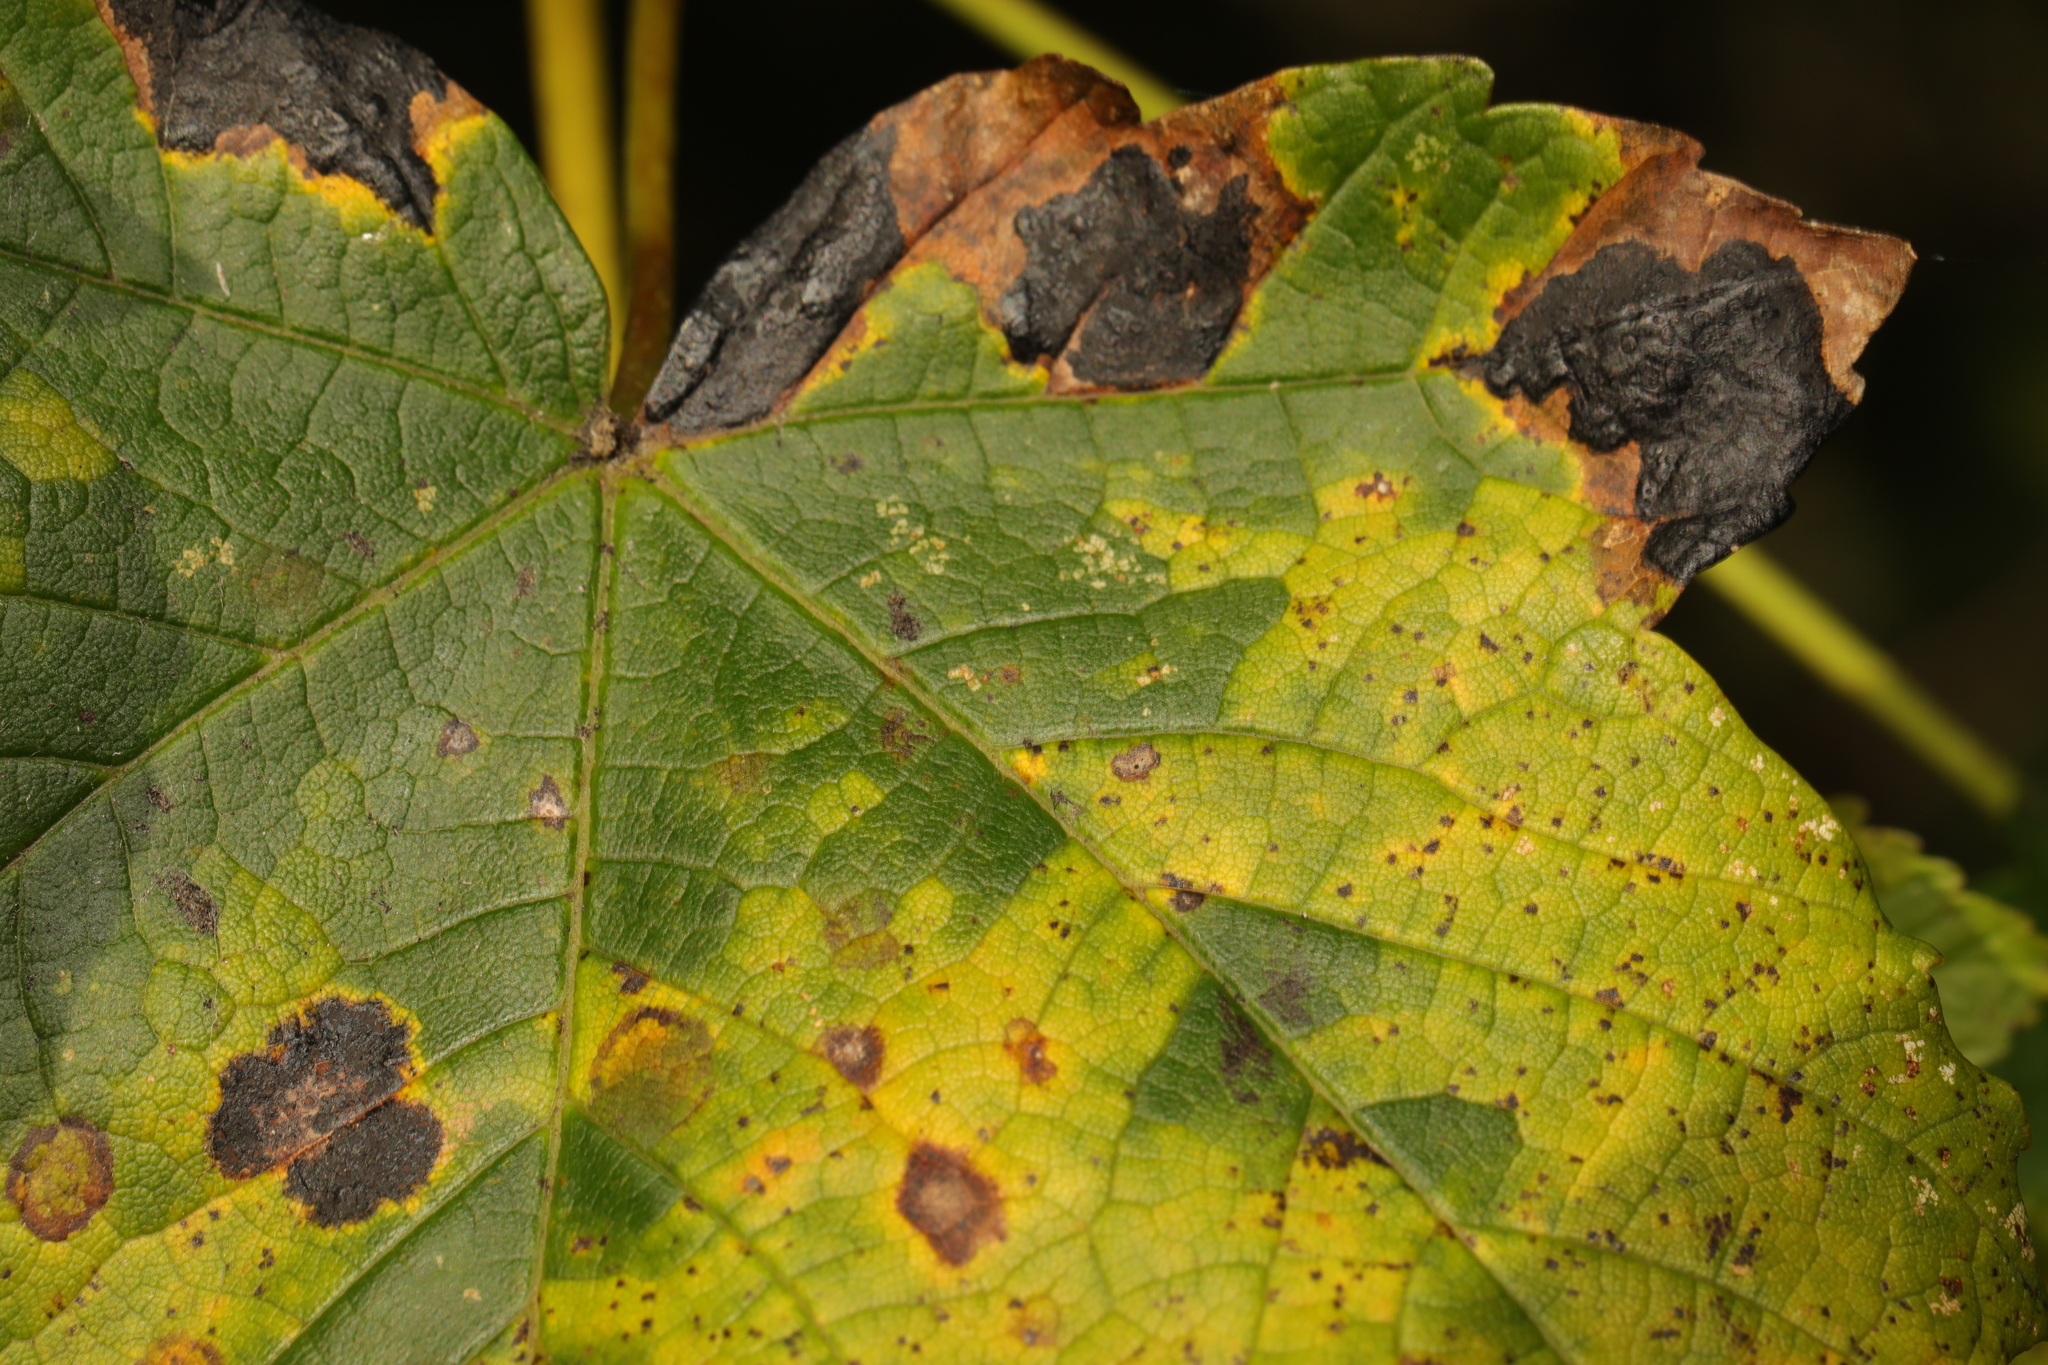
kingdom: Fungi
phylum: Ascomycota
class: Leotiomycetes
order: Rhytismatales
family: Rhytismataceae
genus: Rhytisma
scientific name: Rhytisma acerinum
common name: European tar spot
